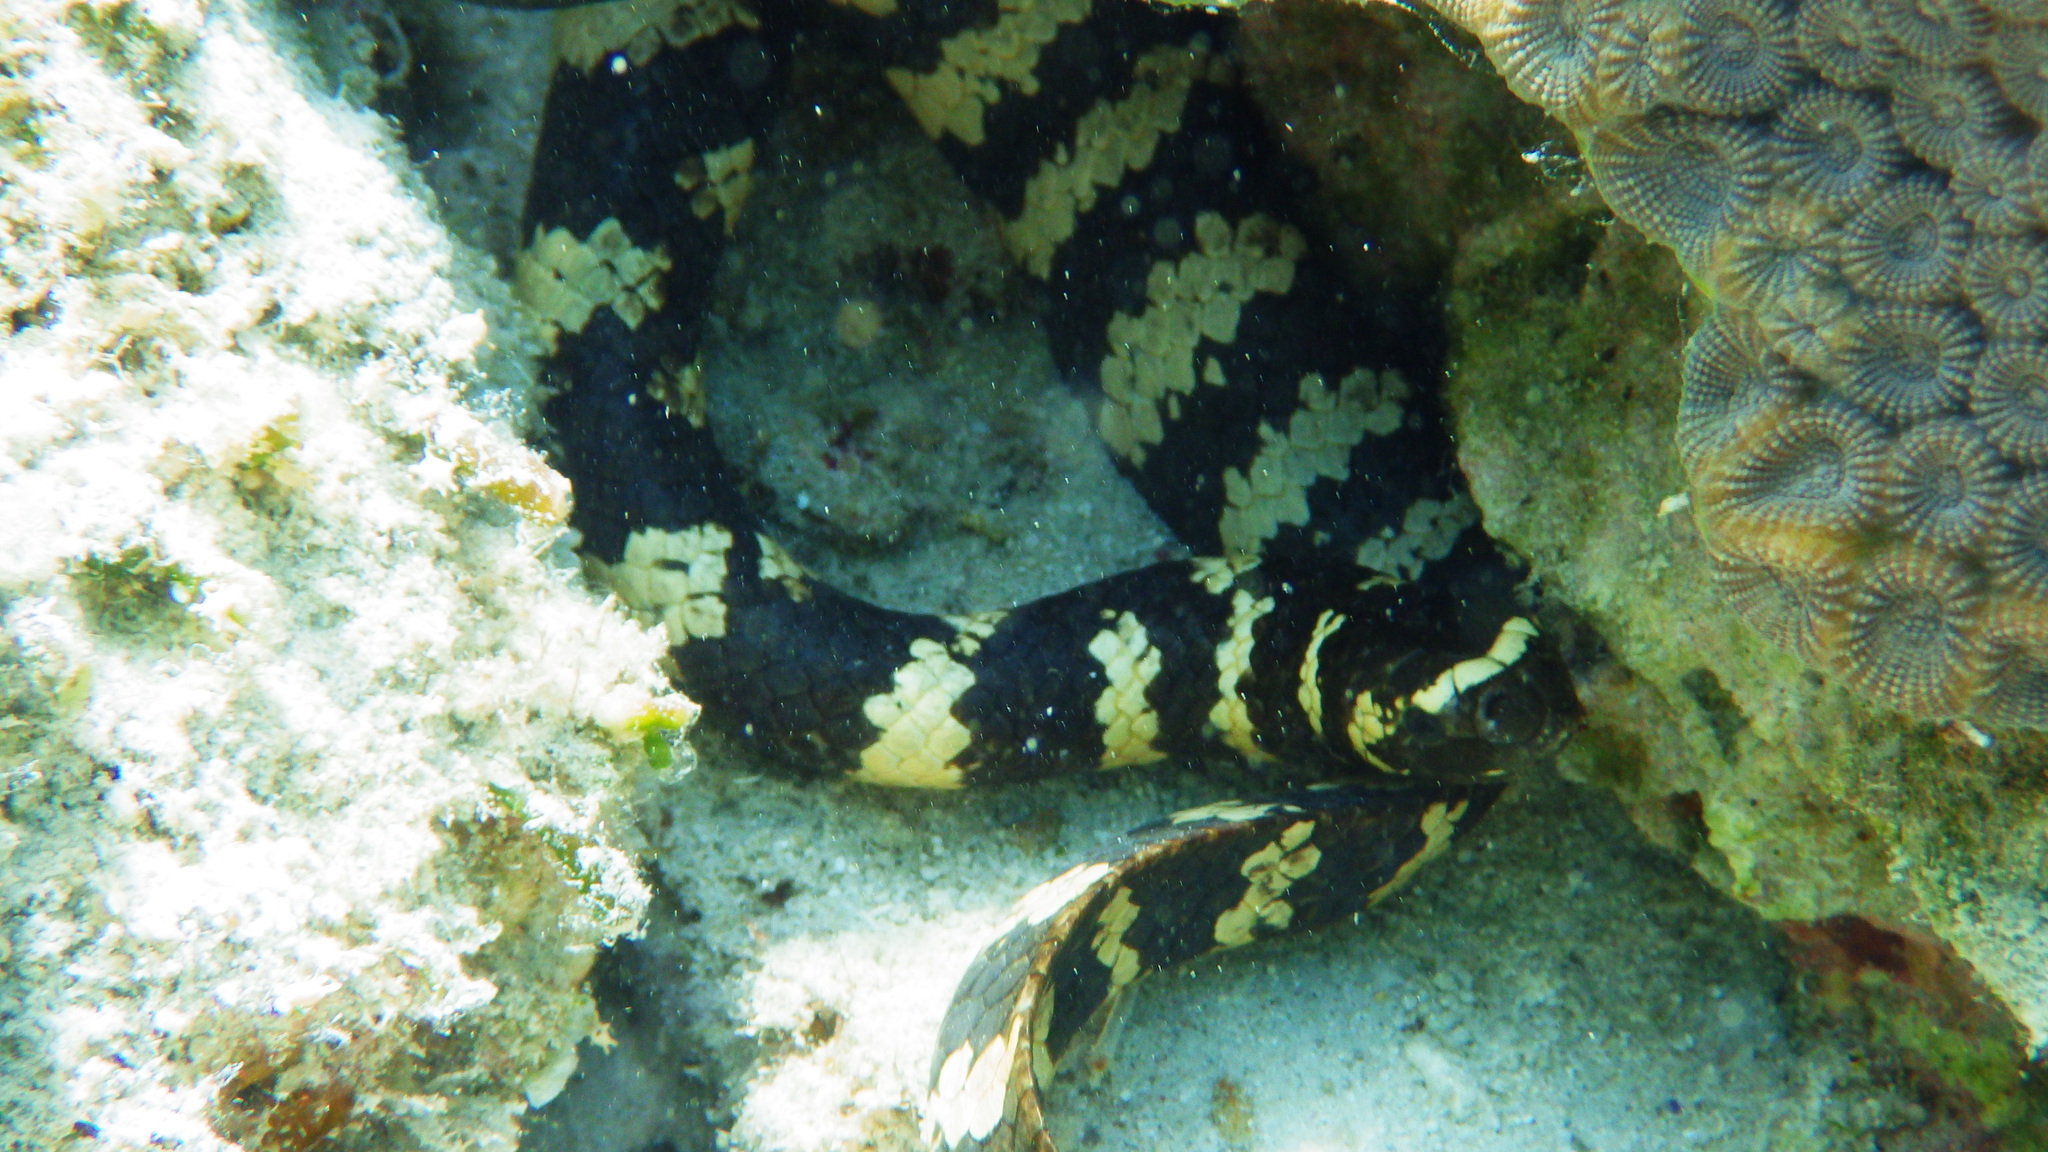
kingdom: Animalia
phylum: Chordata
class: Squamata
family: Elapidae
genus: Emydocephalus
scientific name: Emydocephalus ijimae
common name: Turtlehead sea snake
